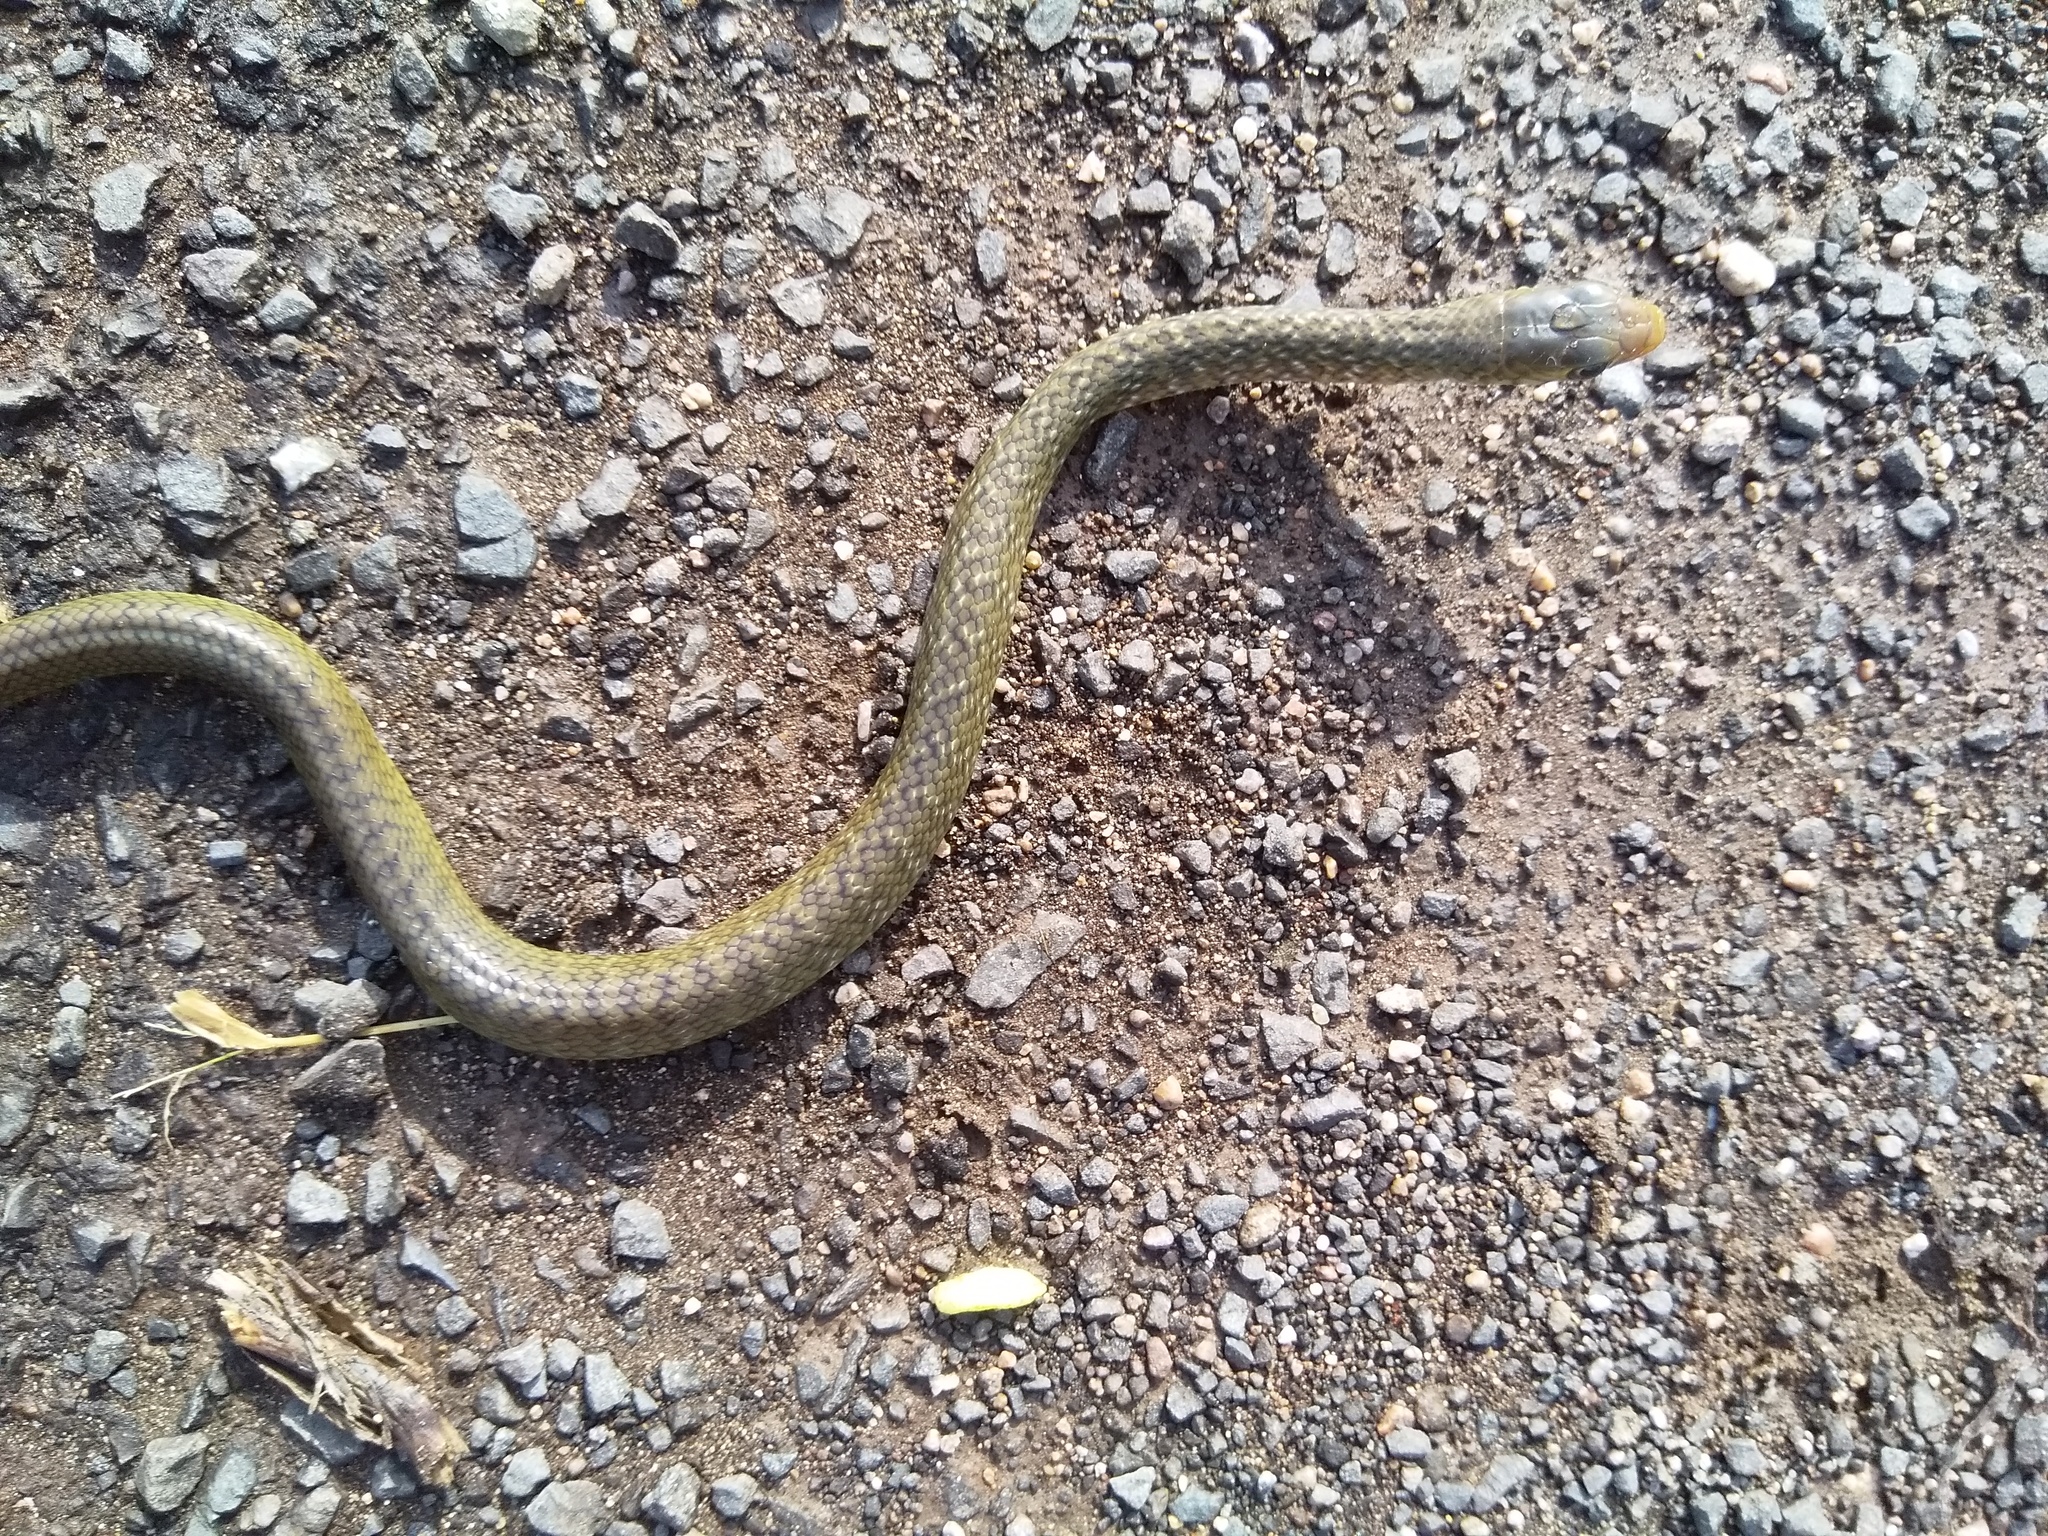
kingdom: Animalia
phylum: Chordata
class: Squamata
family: Colubridae
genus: Ptyas
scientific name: Ptyas mucosa
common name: Oriental ratsnake
